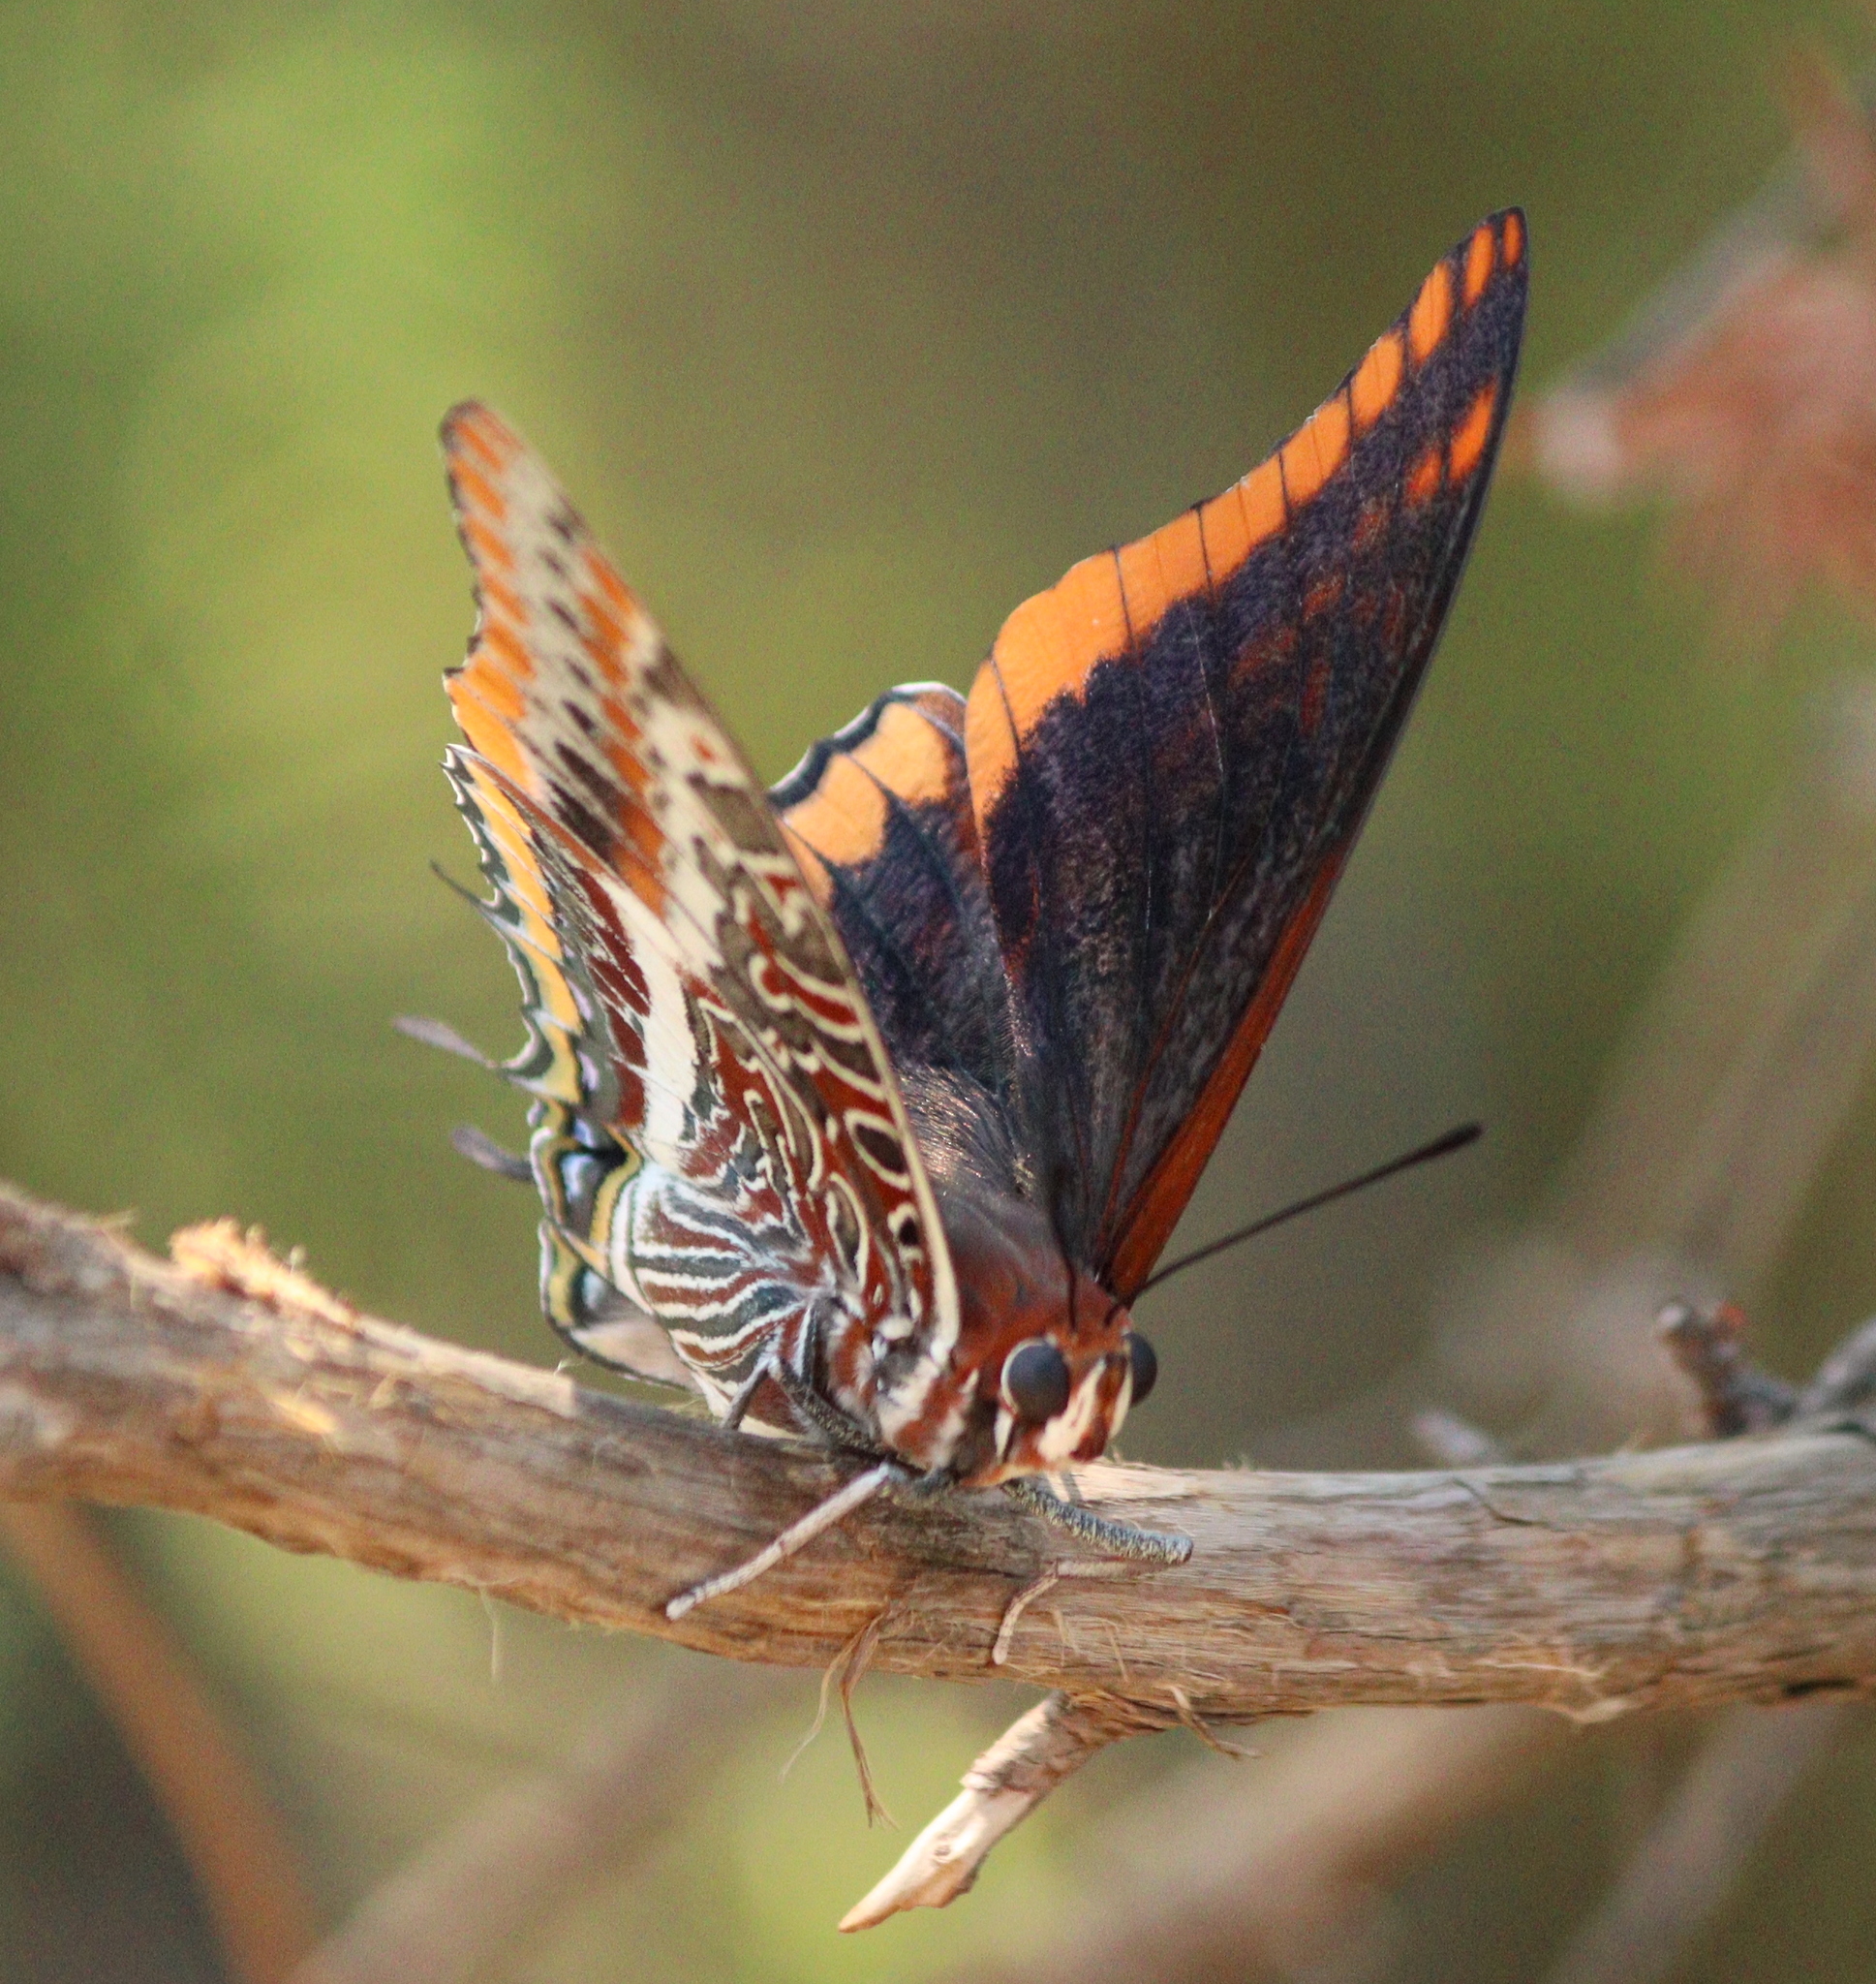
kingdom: Animalia
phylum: Arthropoda
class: Insecta
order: Lepidoptera
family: Nymphalidae
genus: Charaxes
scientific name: Charaxes jasius
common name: Two tailed pasha
